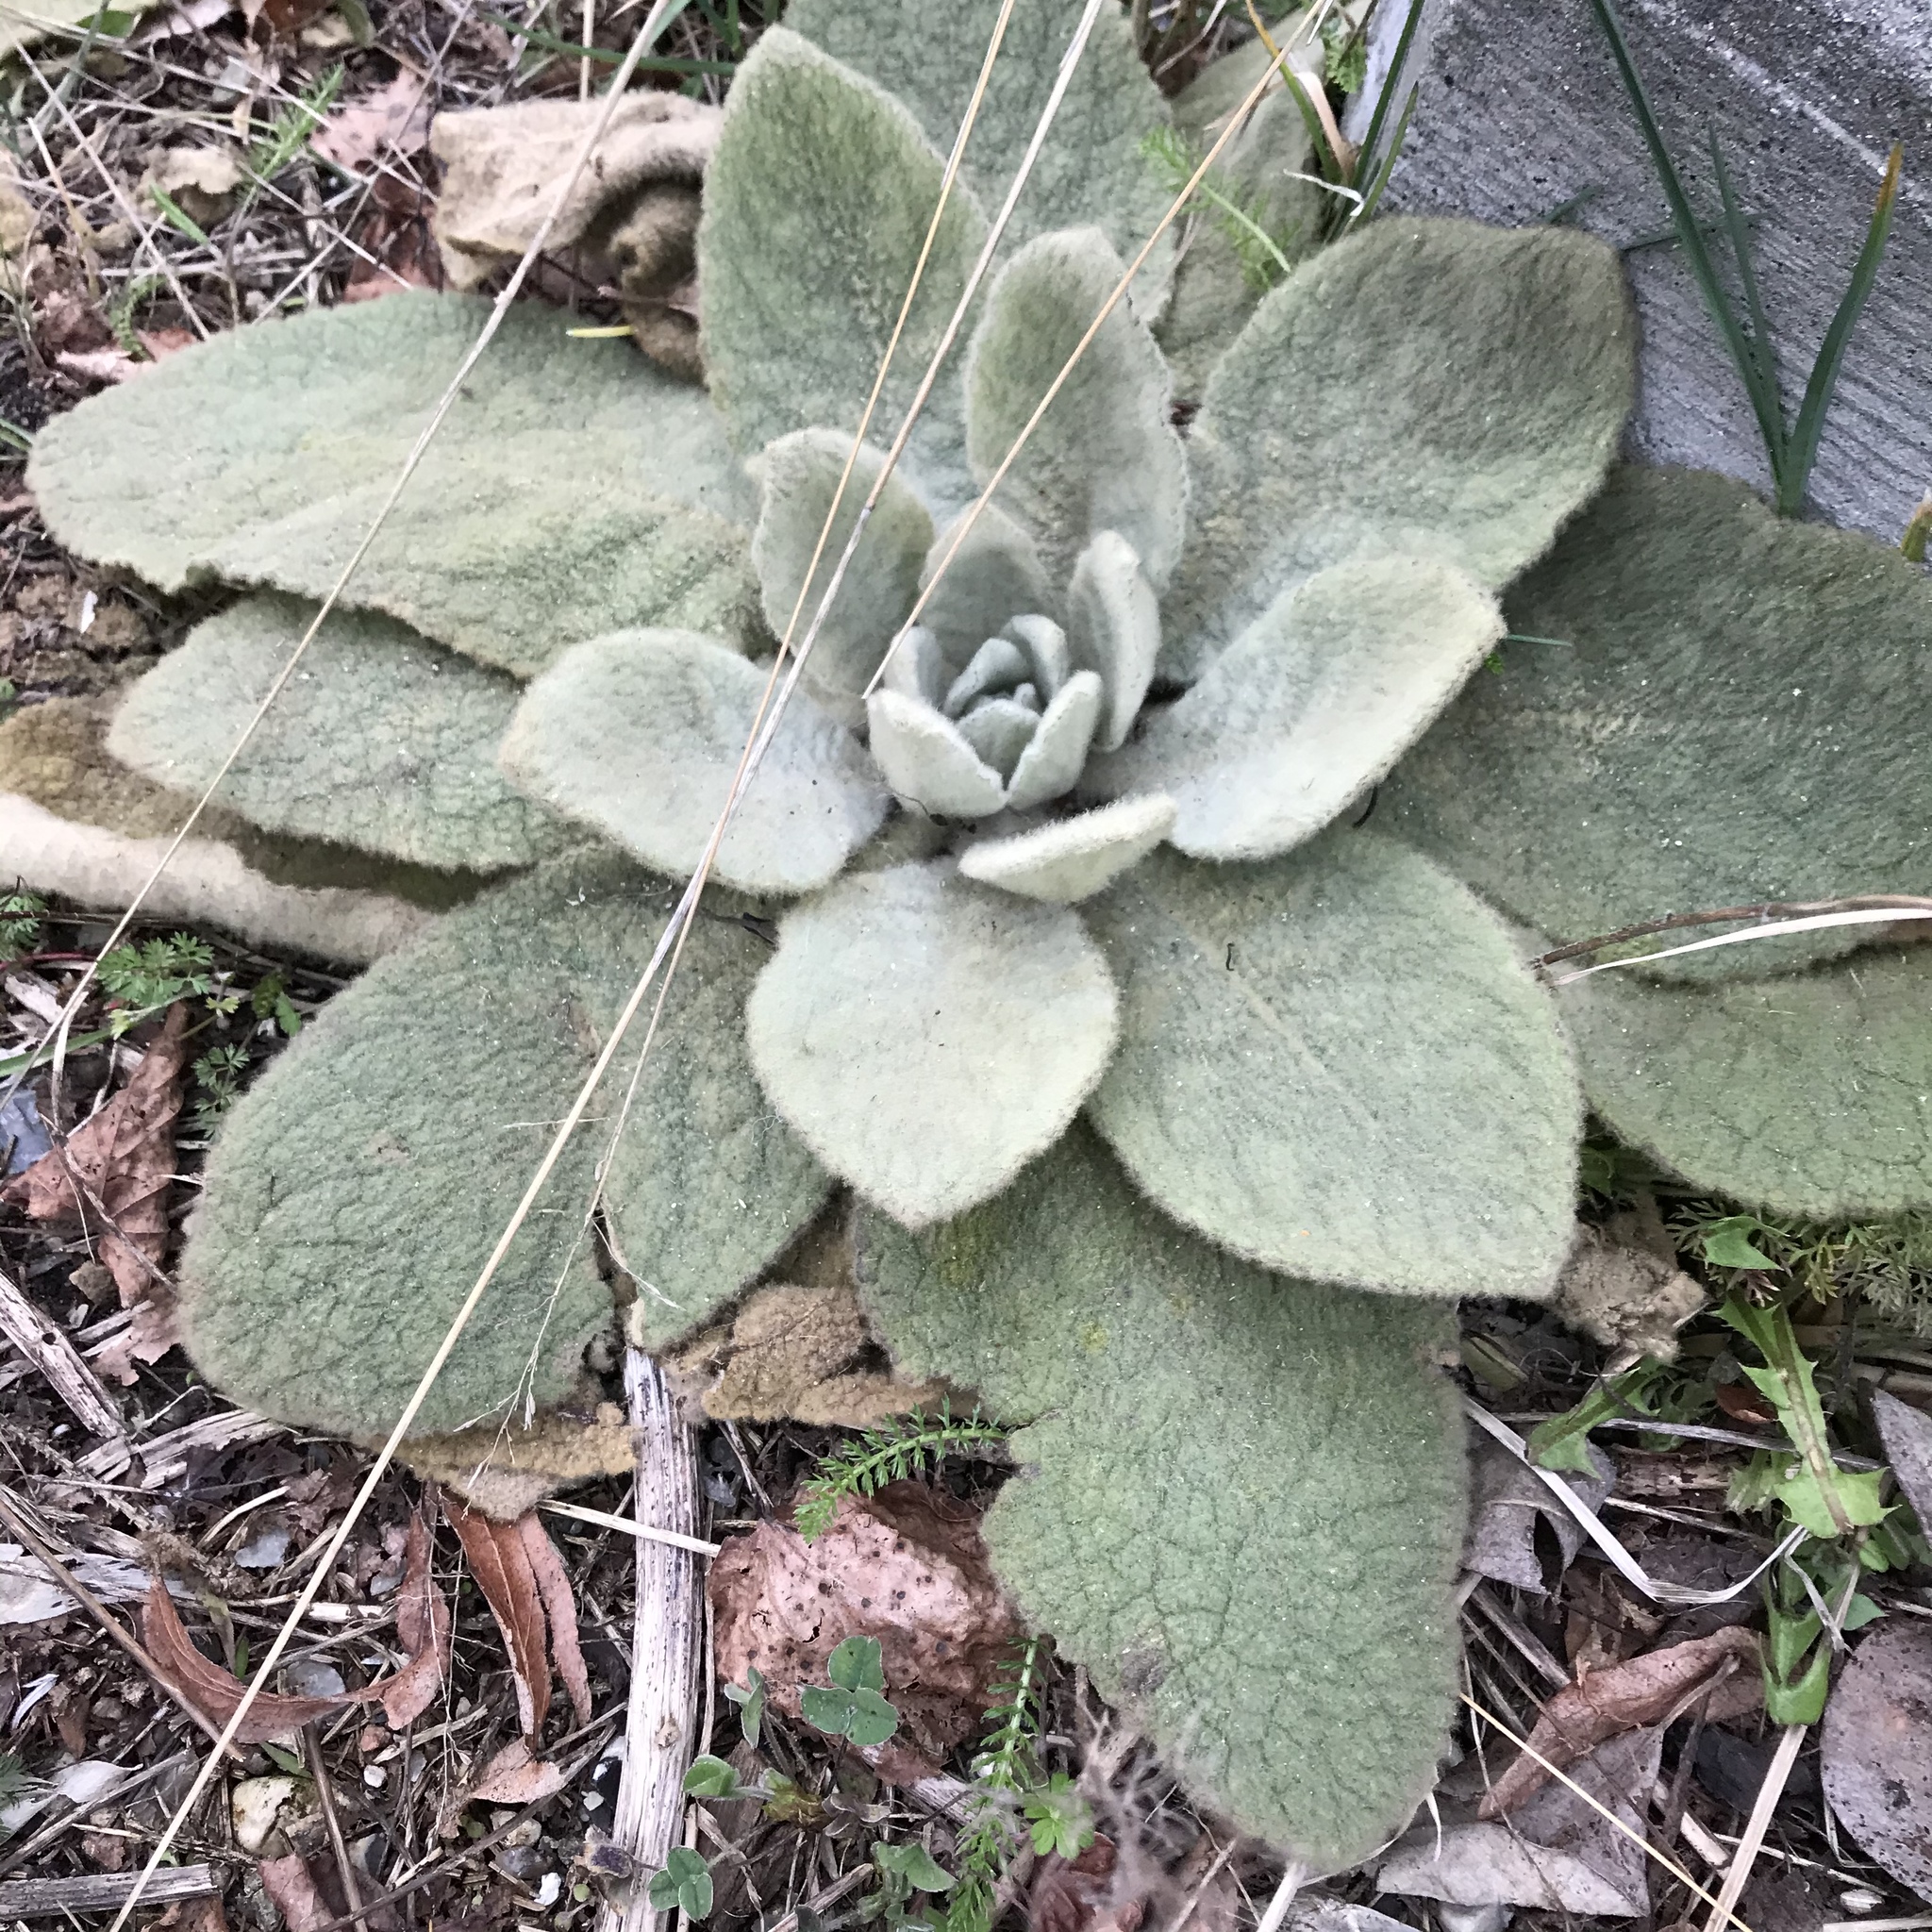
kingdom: Plantae
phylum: Tracheophyta
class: Magnoliopsida
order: Lamiales
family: Scrophulariaceae
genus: Verbascum
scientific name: Verbascum thapsus
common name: Common mullein
